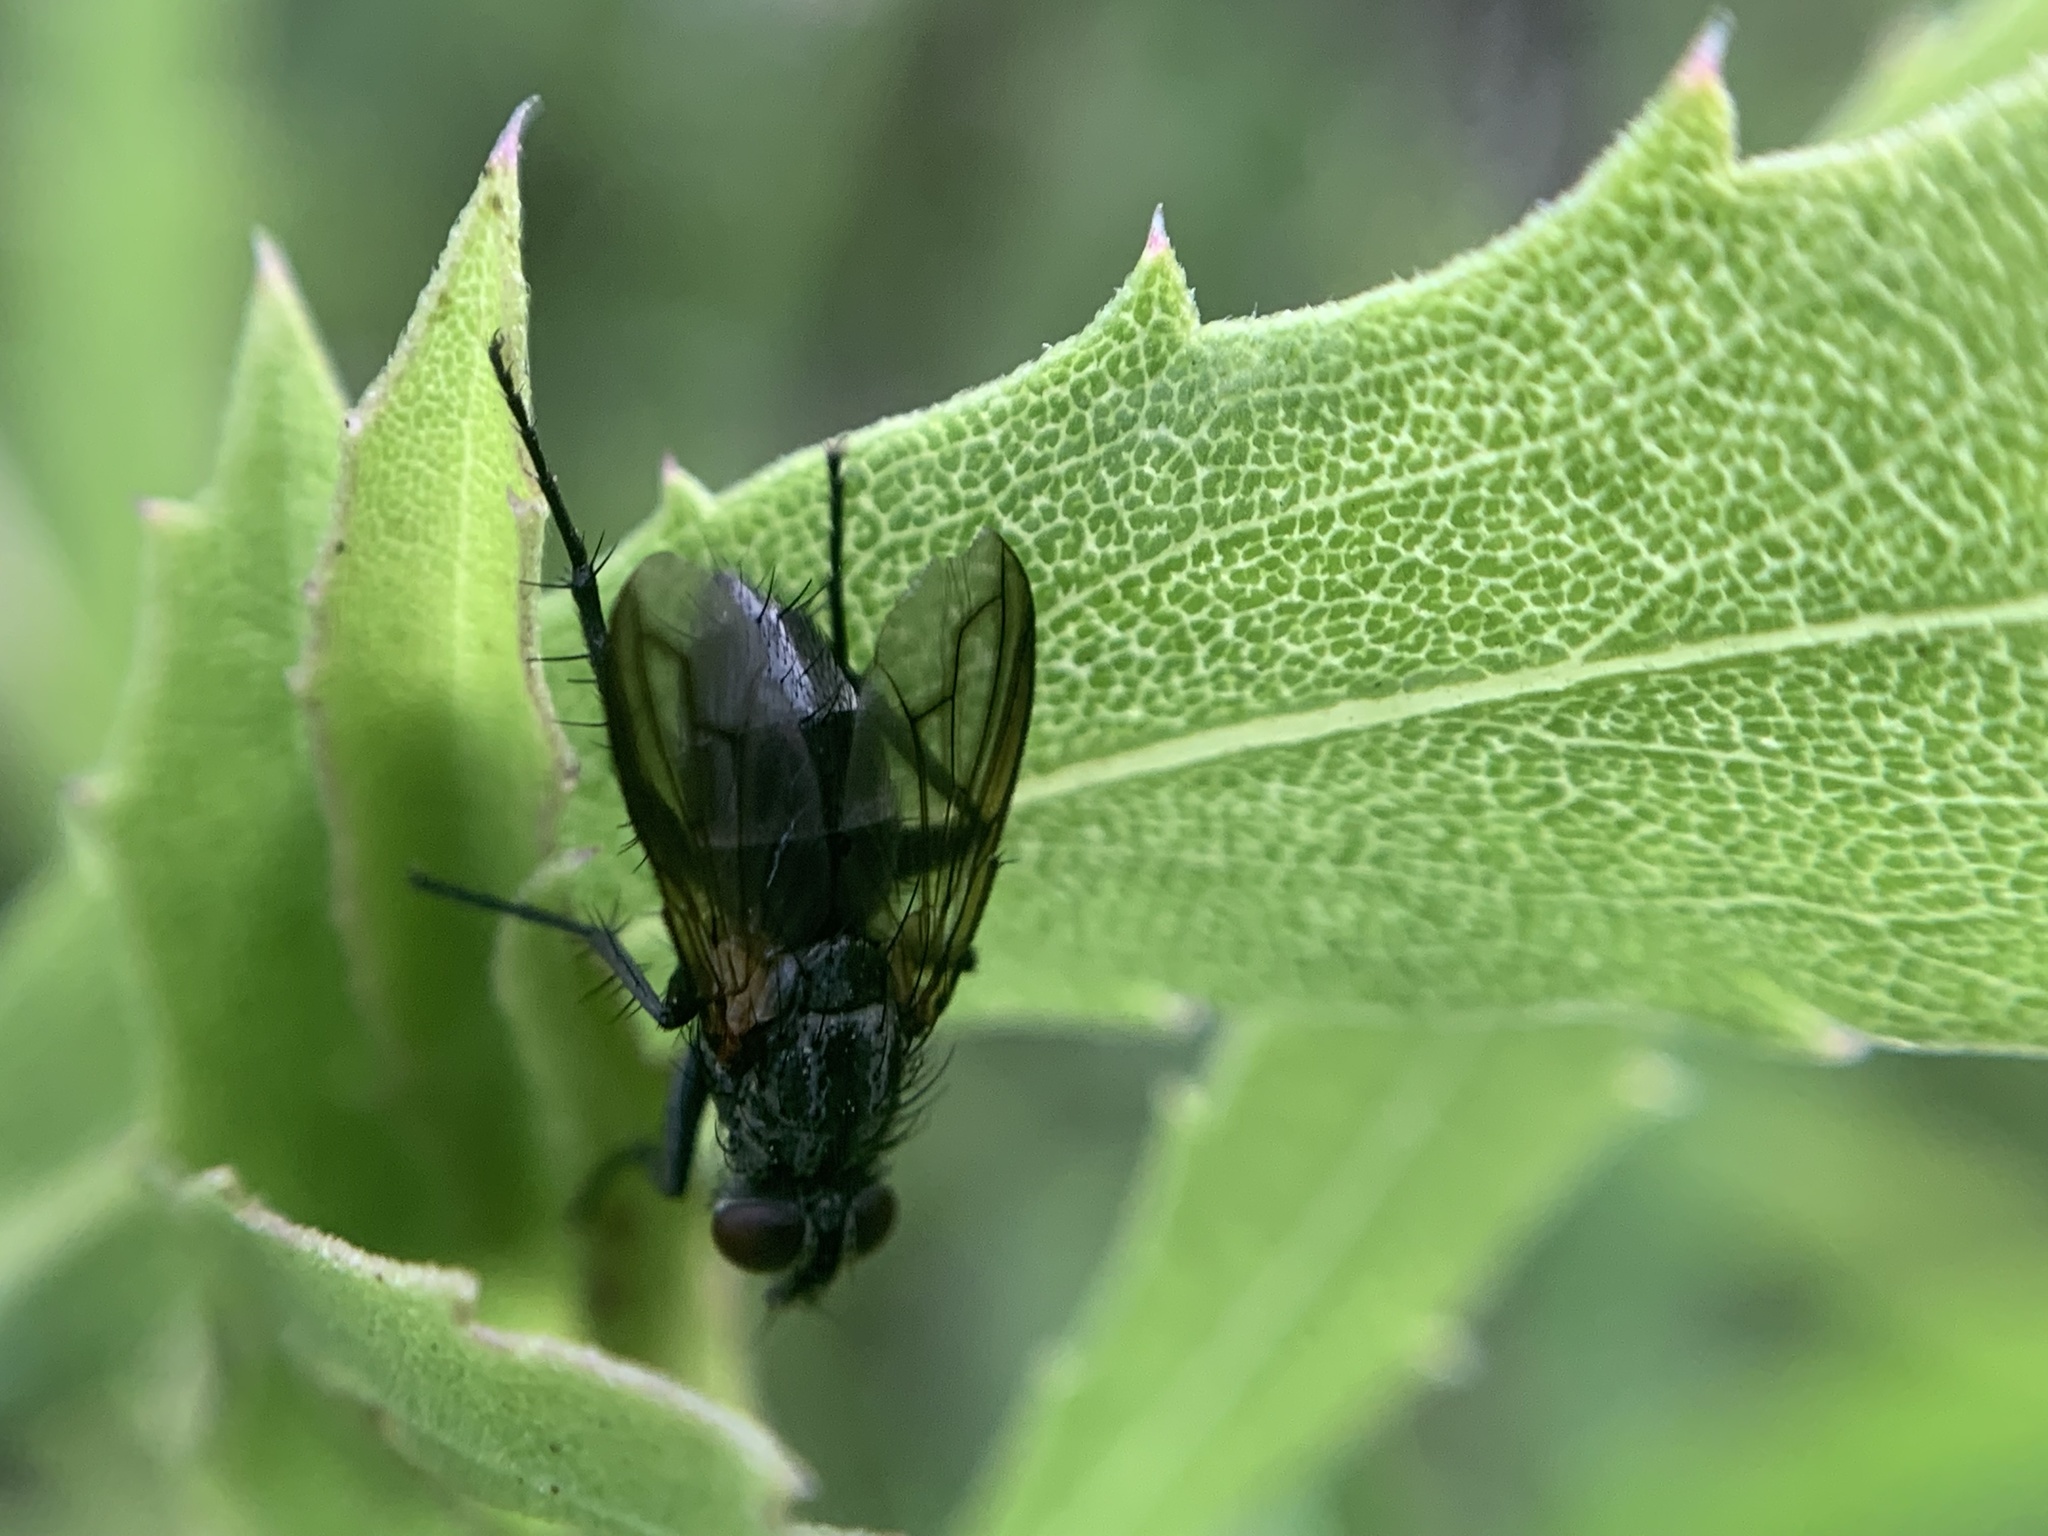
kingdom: Animalia
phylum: Arthropoda
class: Insecta
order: Diptera
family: Calliphoridae
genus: Stevenia
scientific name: Stevenia deceptoria
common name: Grizzled woodlouse-fly
